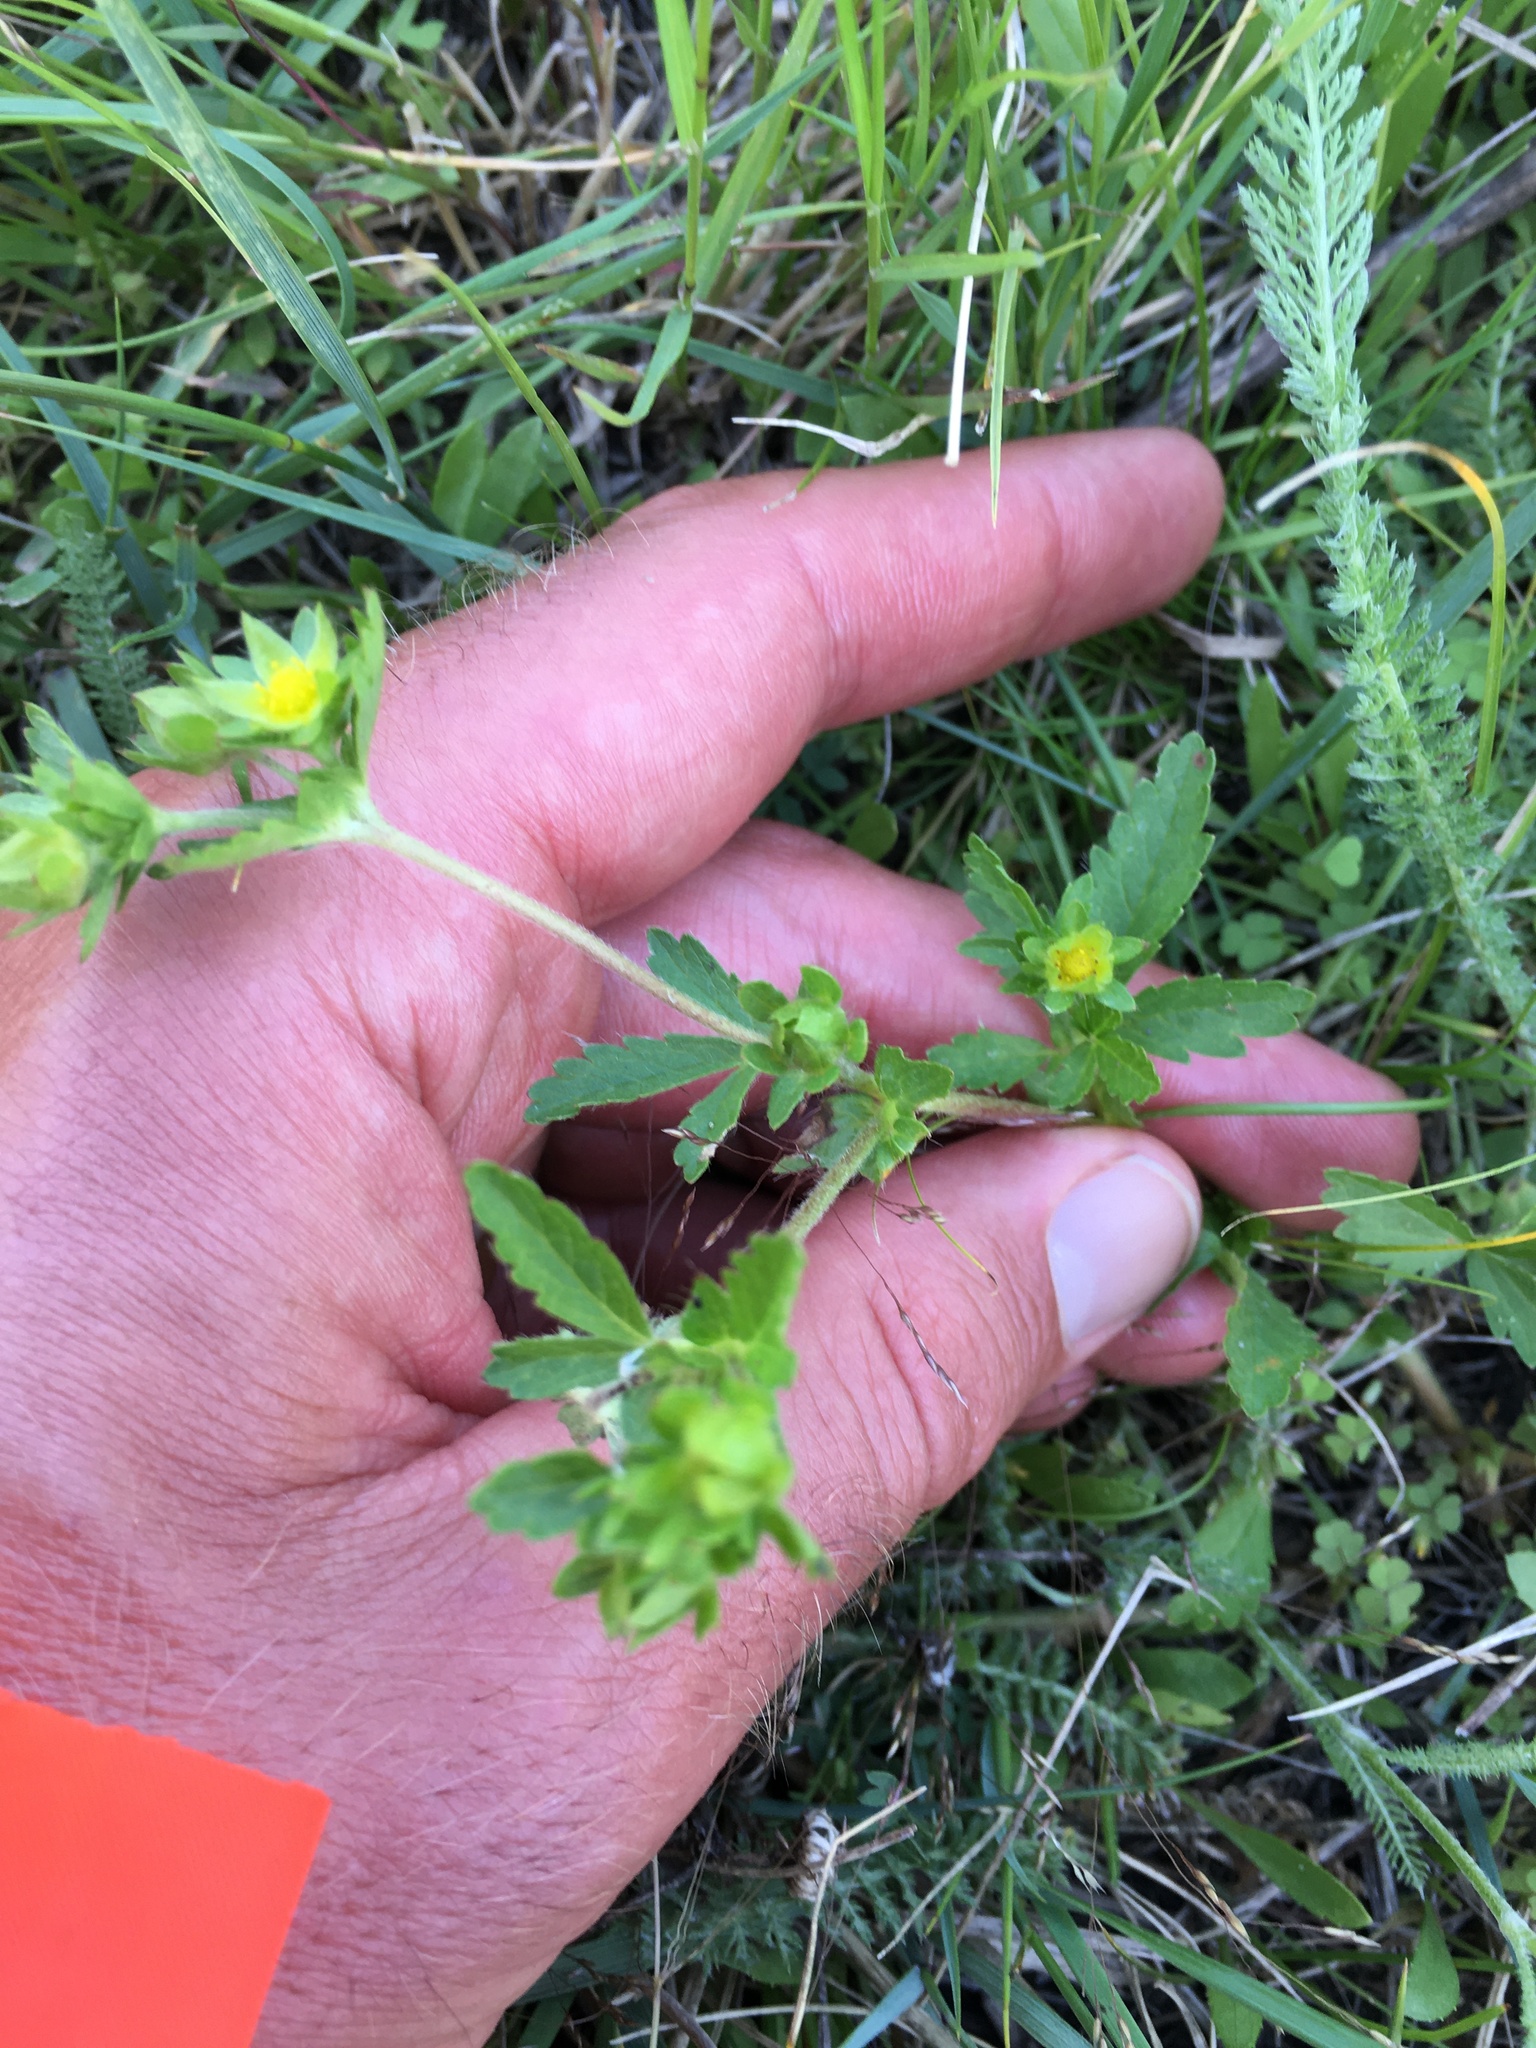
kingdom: Plantae
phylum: Tracheophyta
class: Magnoliopsida
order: Rosales
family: Rosaceae
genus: Potentilla
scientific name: Potentilla norvegica
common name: Ternate-leaved cinquefoil
